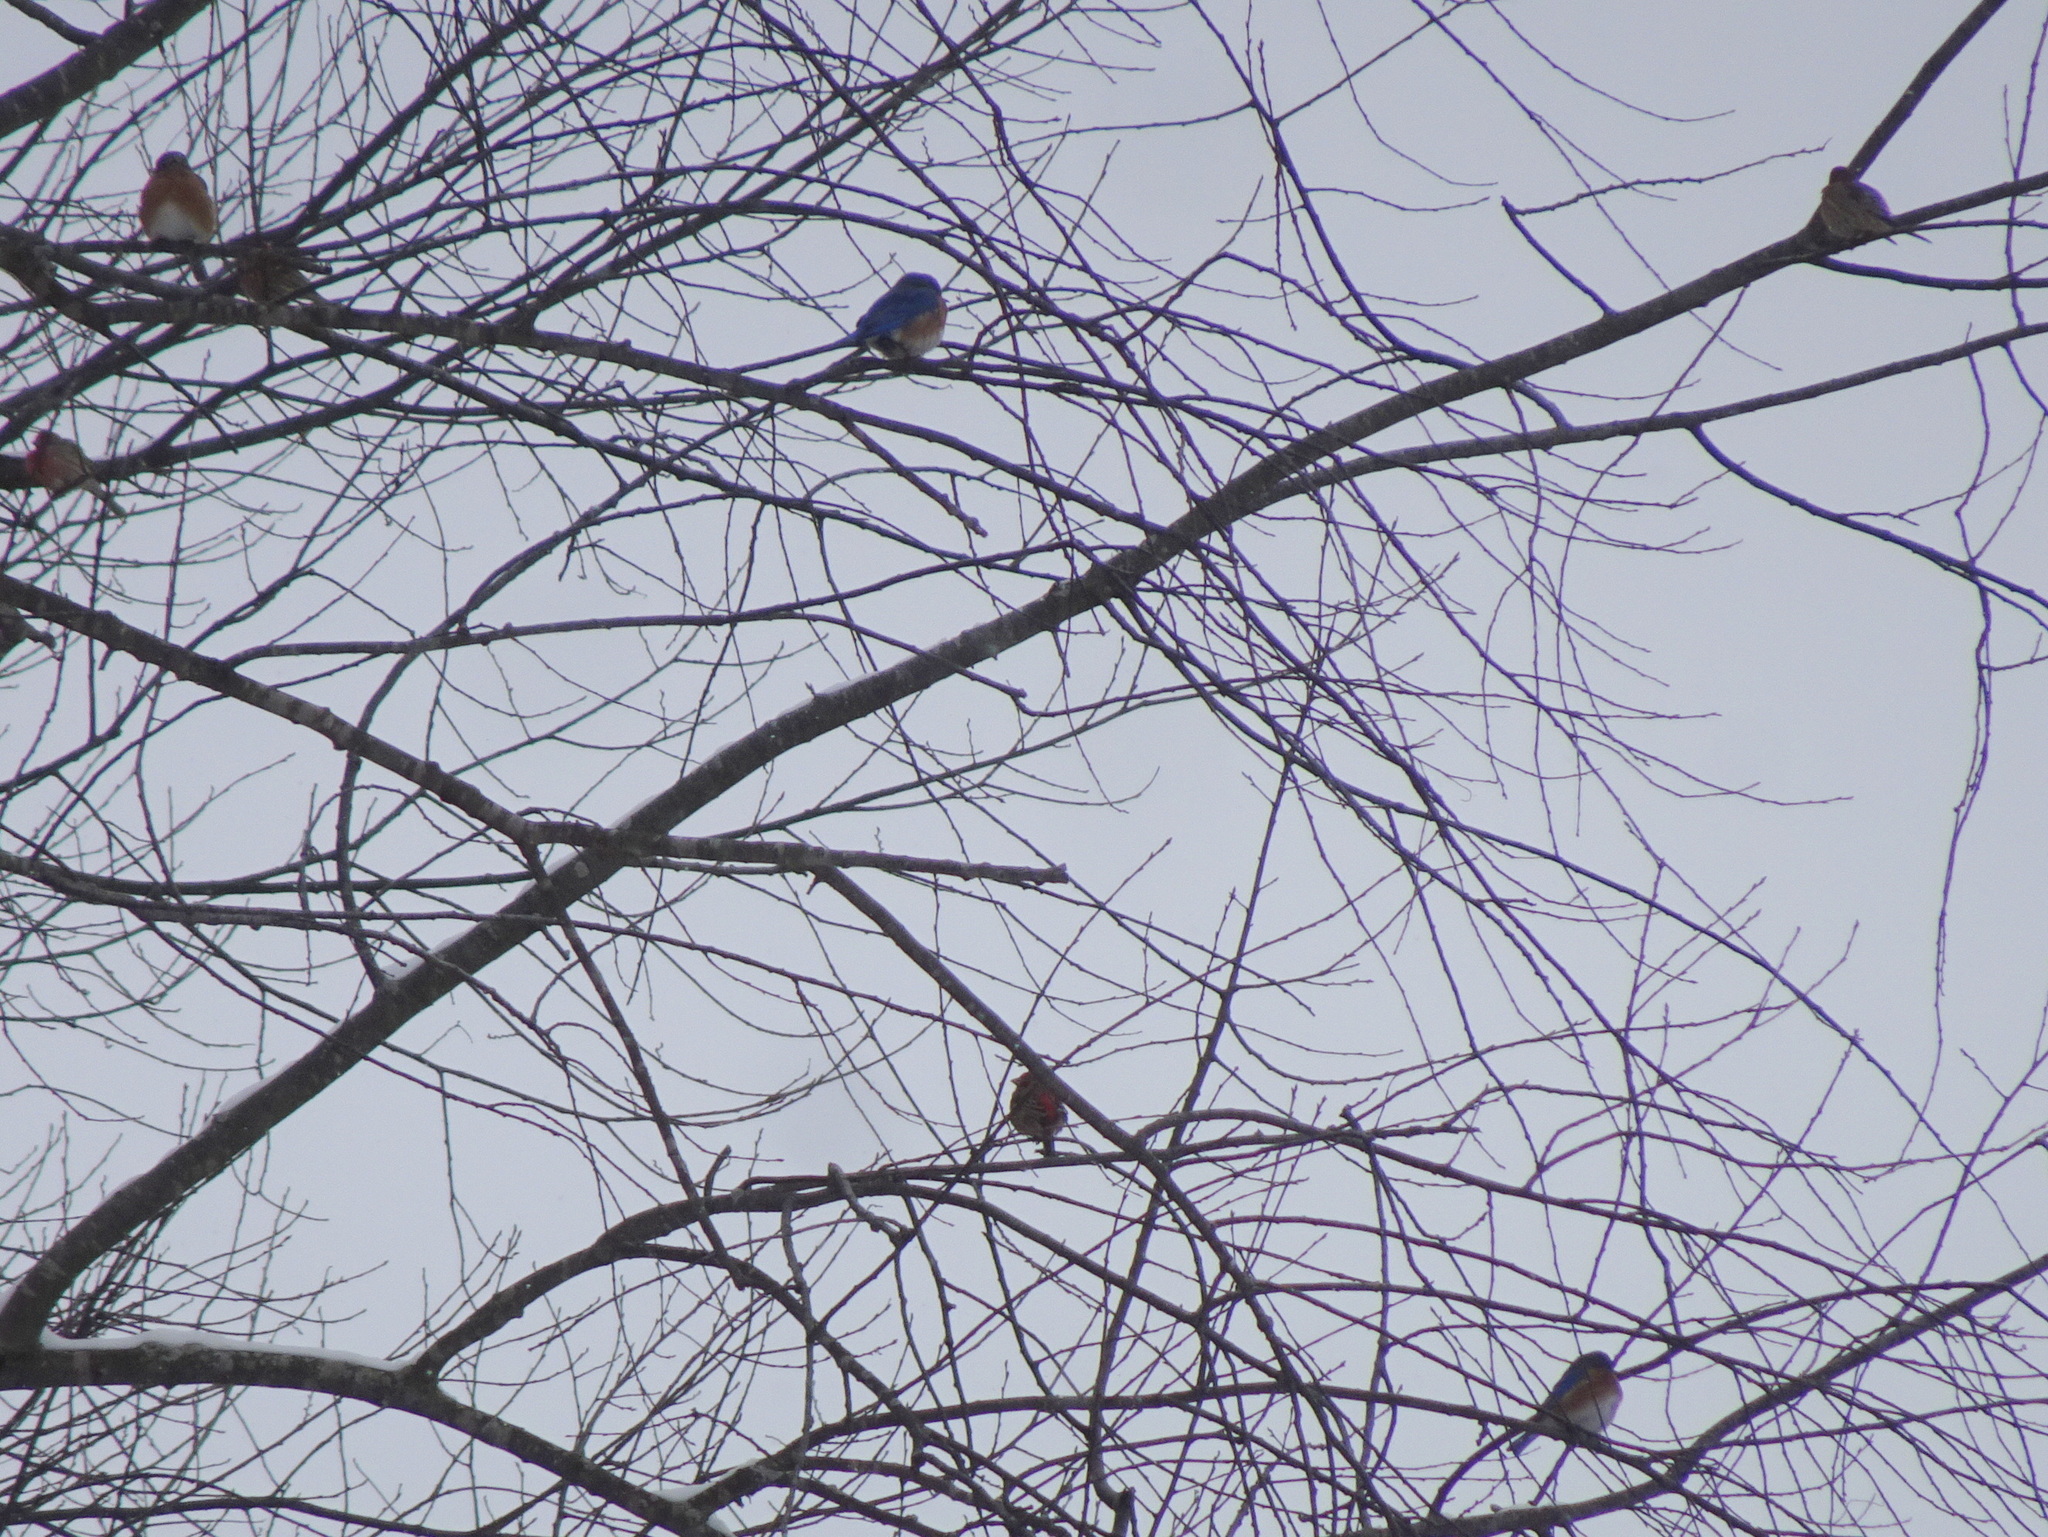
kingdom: Animalia
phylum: Chordata
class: Aves
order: Passeriformes
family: Turdidae
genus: Sialia
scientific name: Sialia sialis
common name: Eastern bluebird
